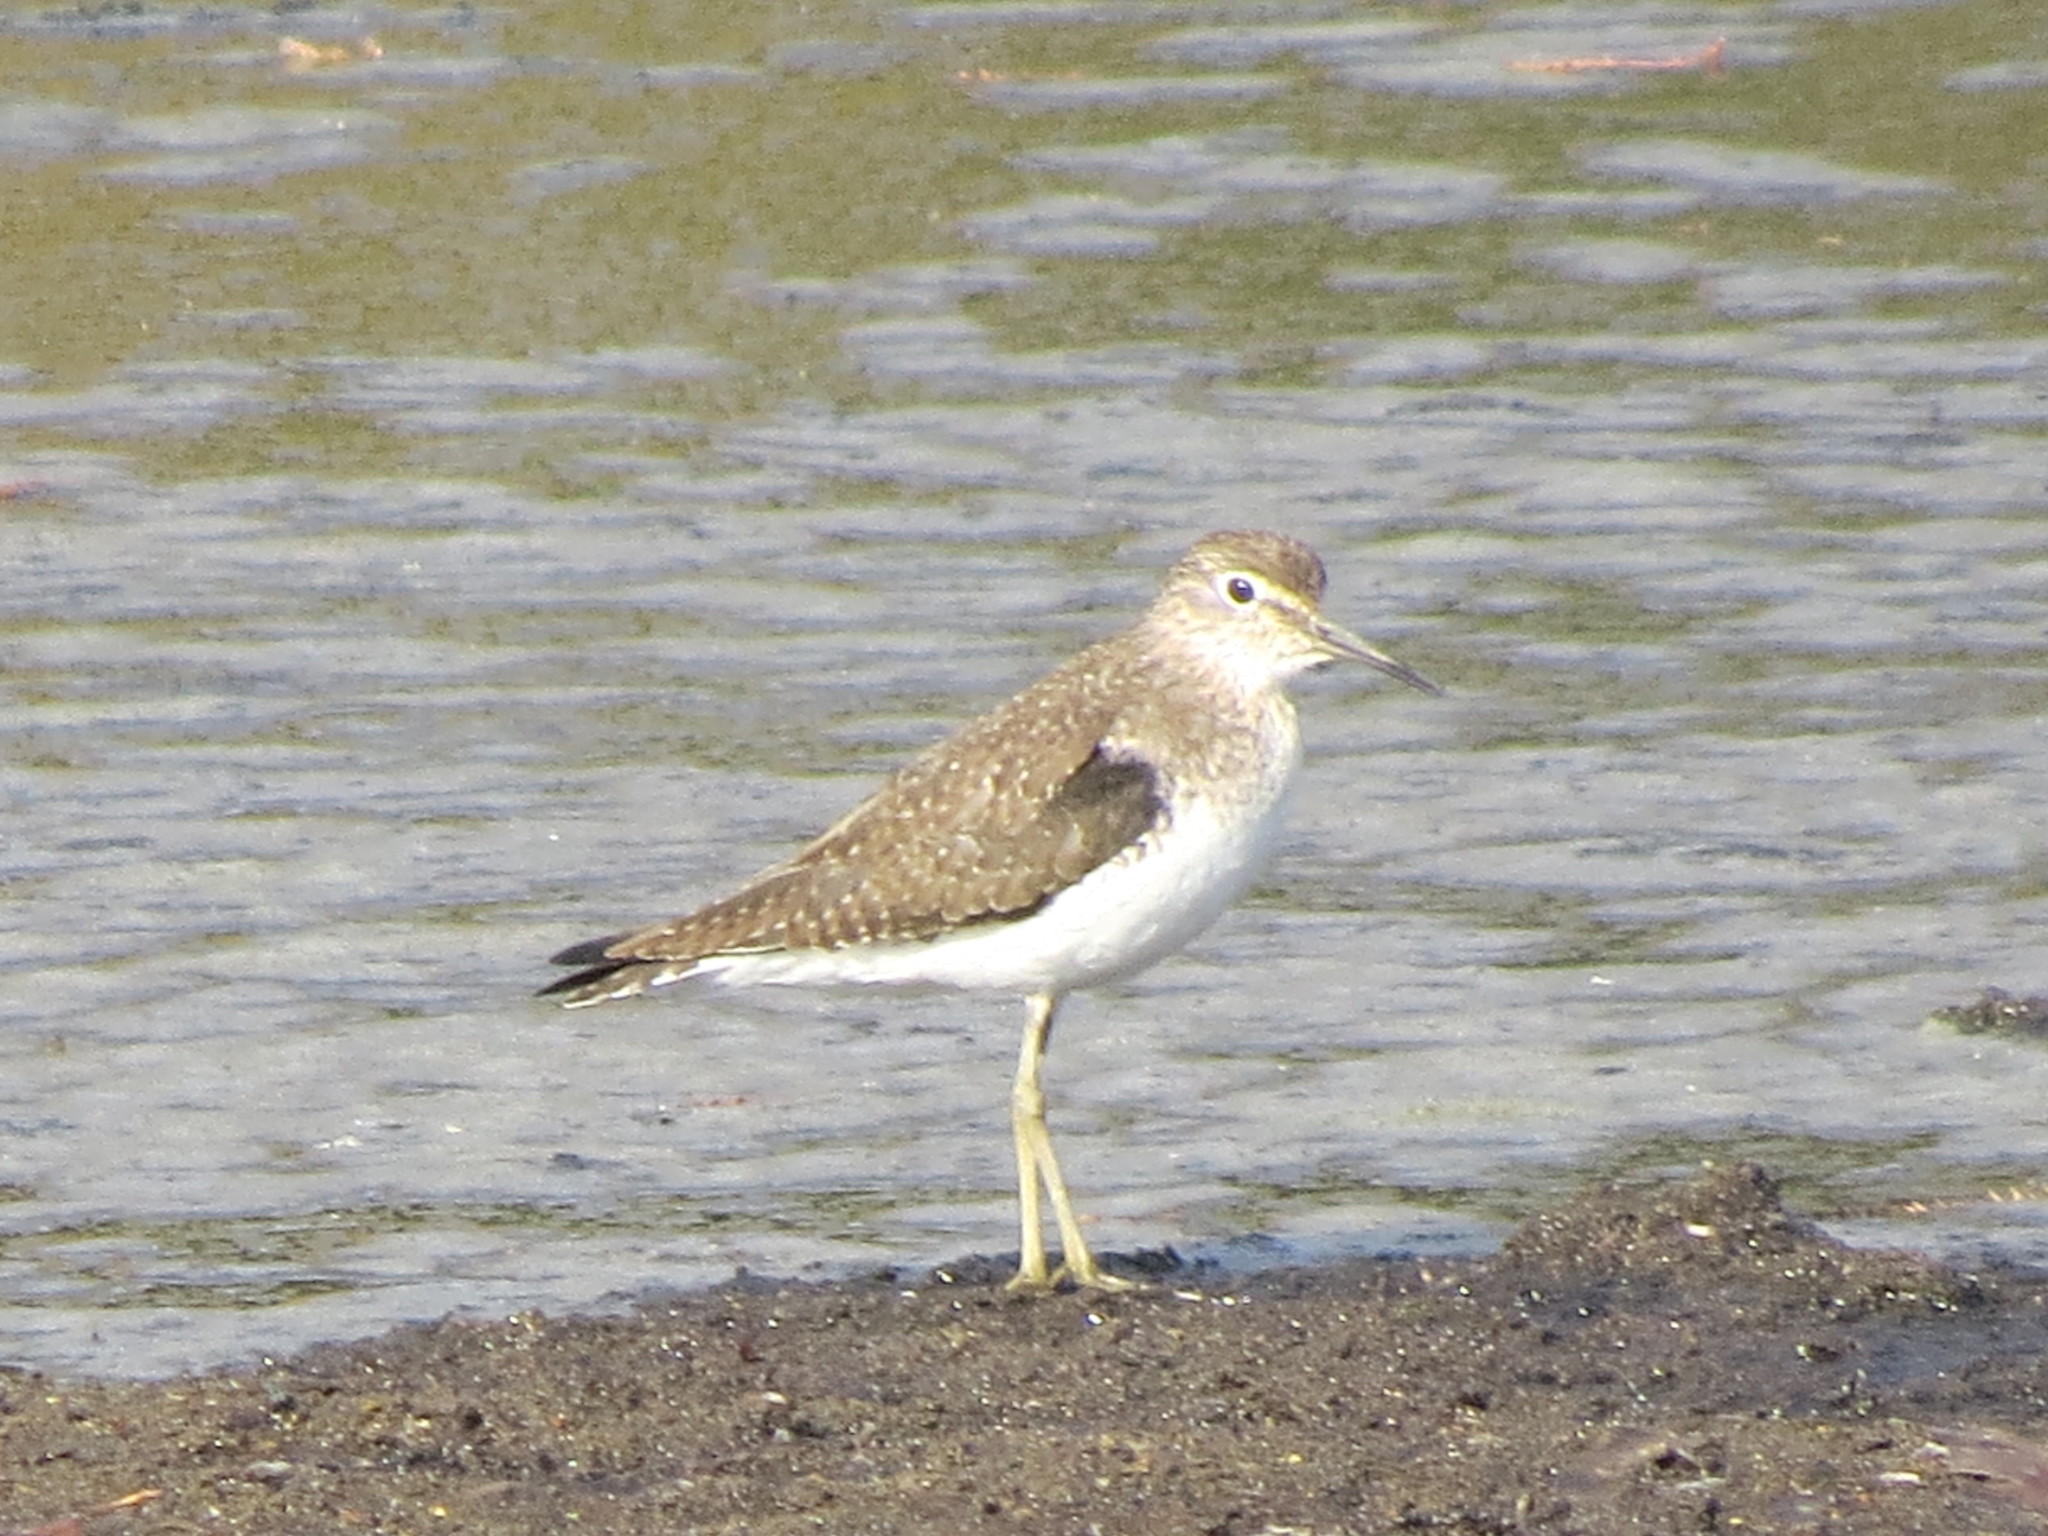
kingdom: Animalia
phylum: Chordata
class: Aves
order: Charadriiformes
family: Scolopacidae
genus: Tringa
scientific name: Tringa solitaria
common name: Solitary sandpiper
